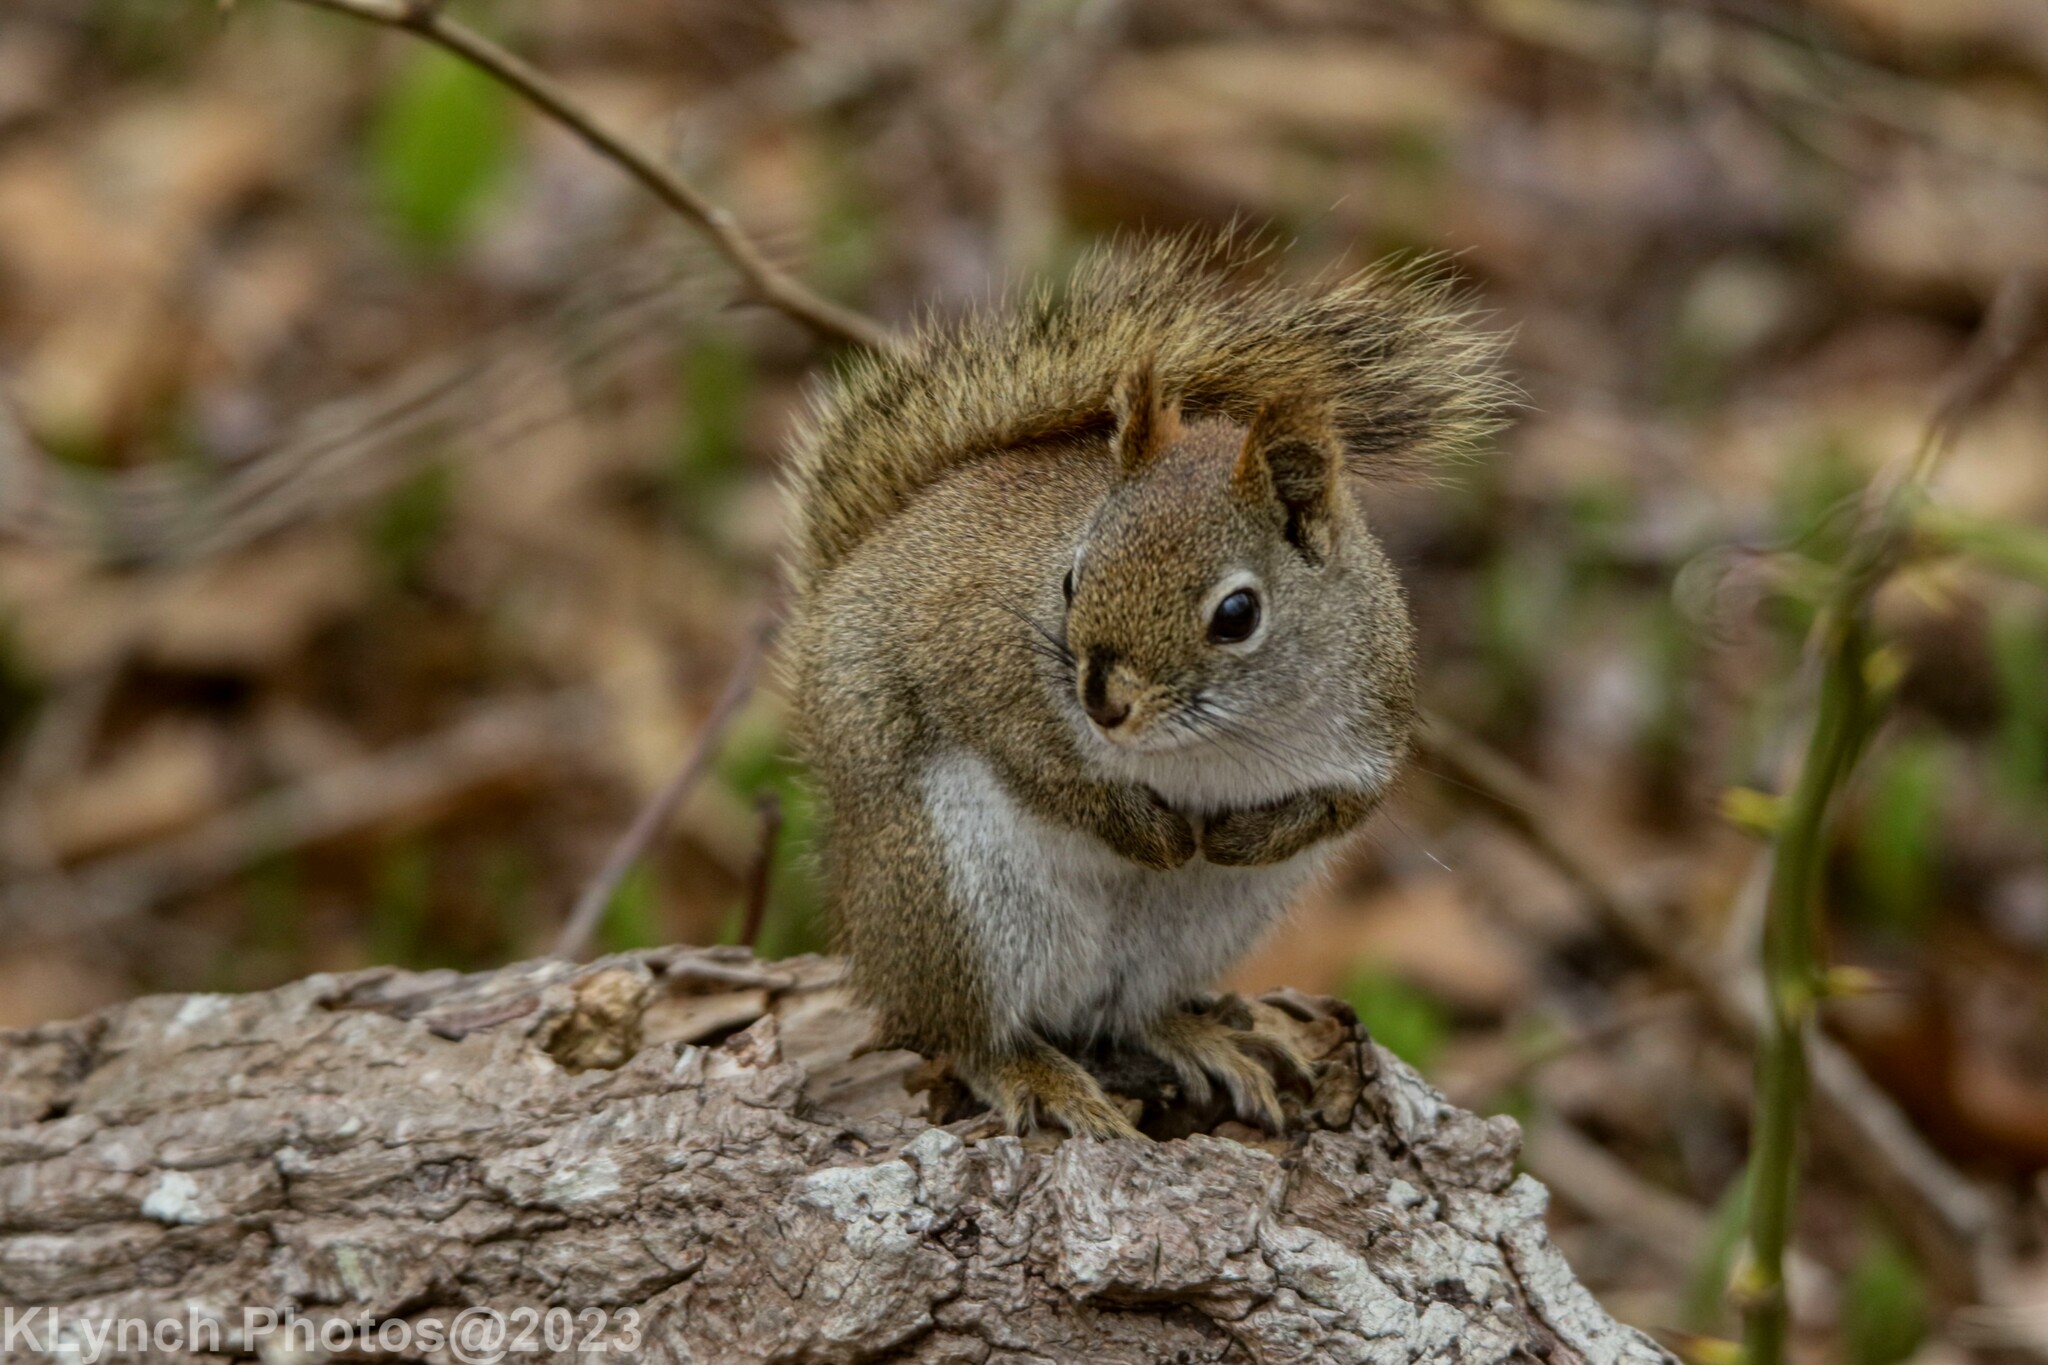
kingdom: Animalia
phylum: Chordata
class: Mammalia
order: Rodentia
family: Sciuridae
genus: Tamiasciurus
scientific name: Tamiasciurus hudsonicus
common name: Red squirrel
